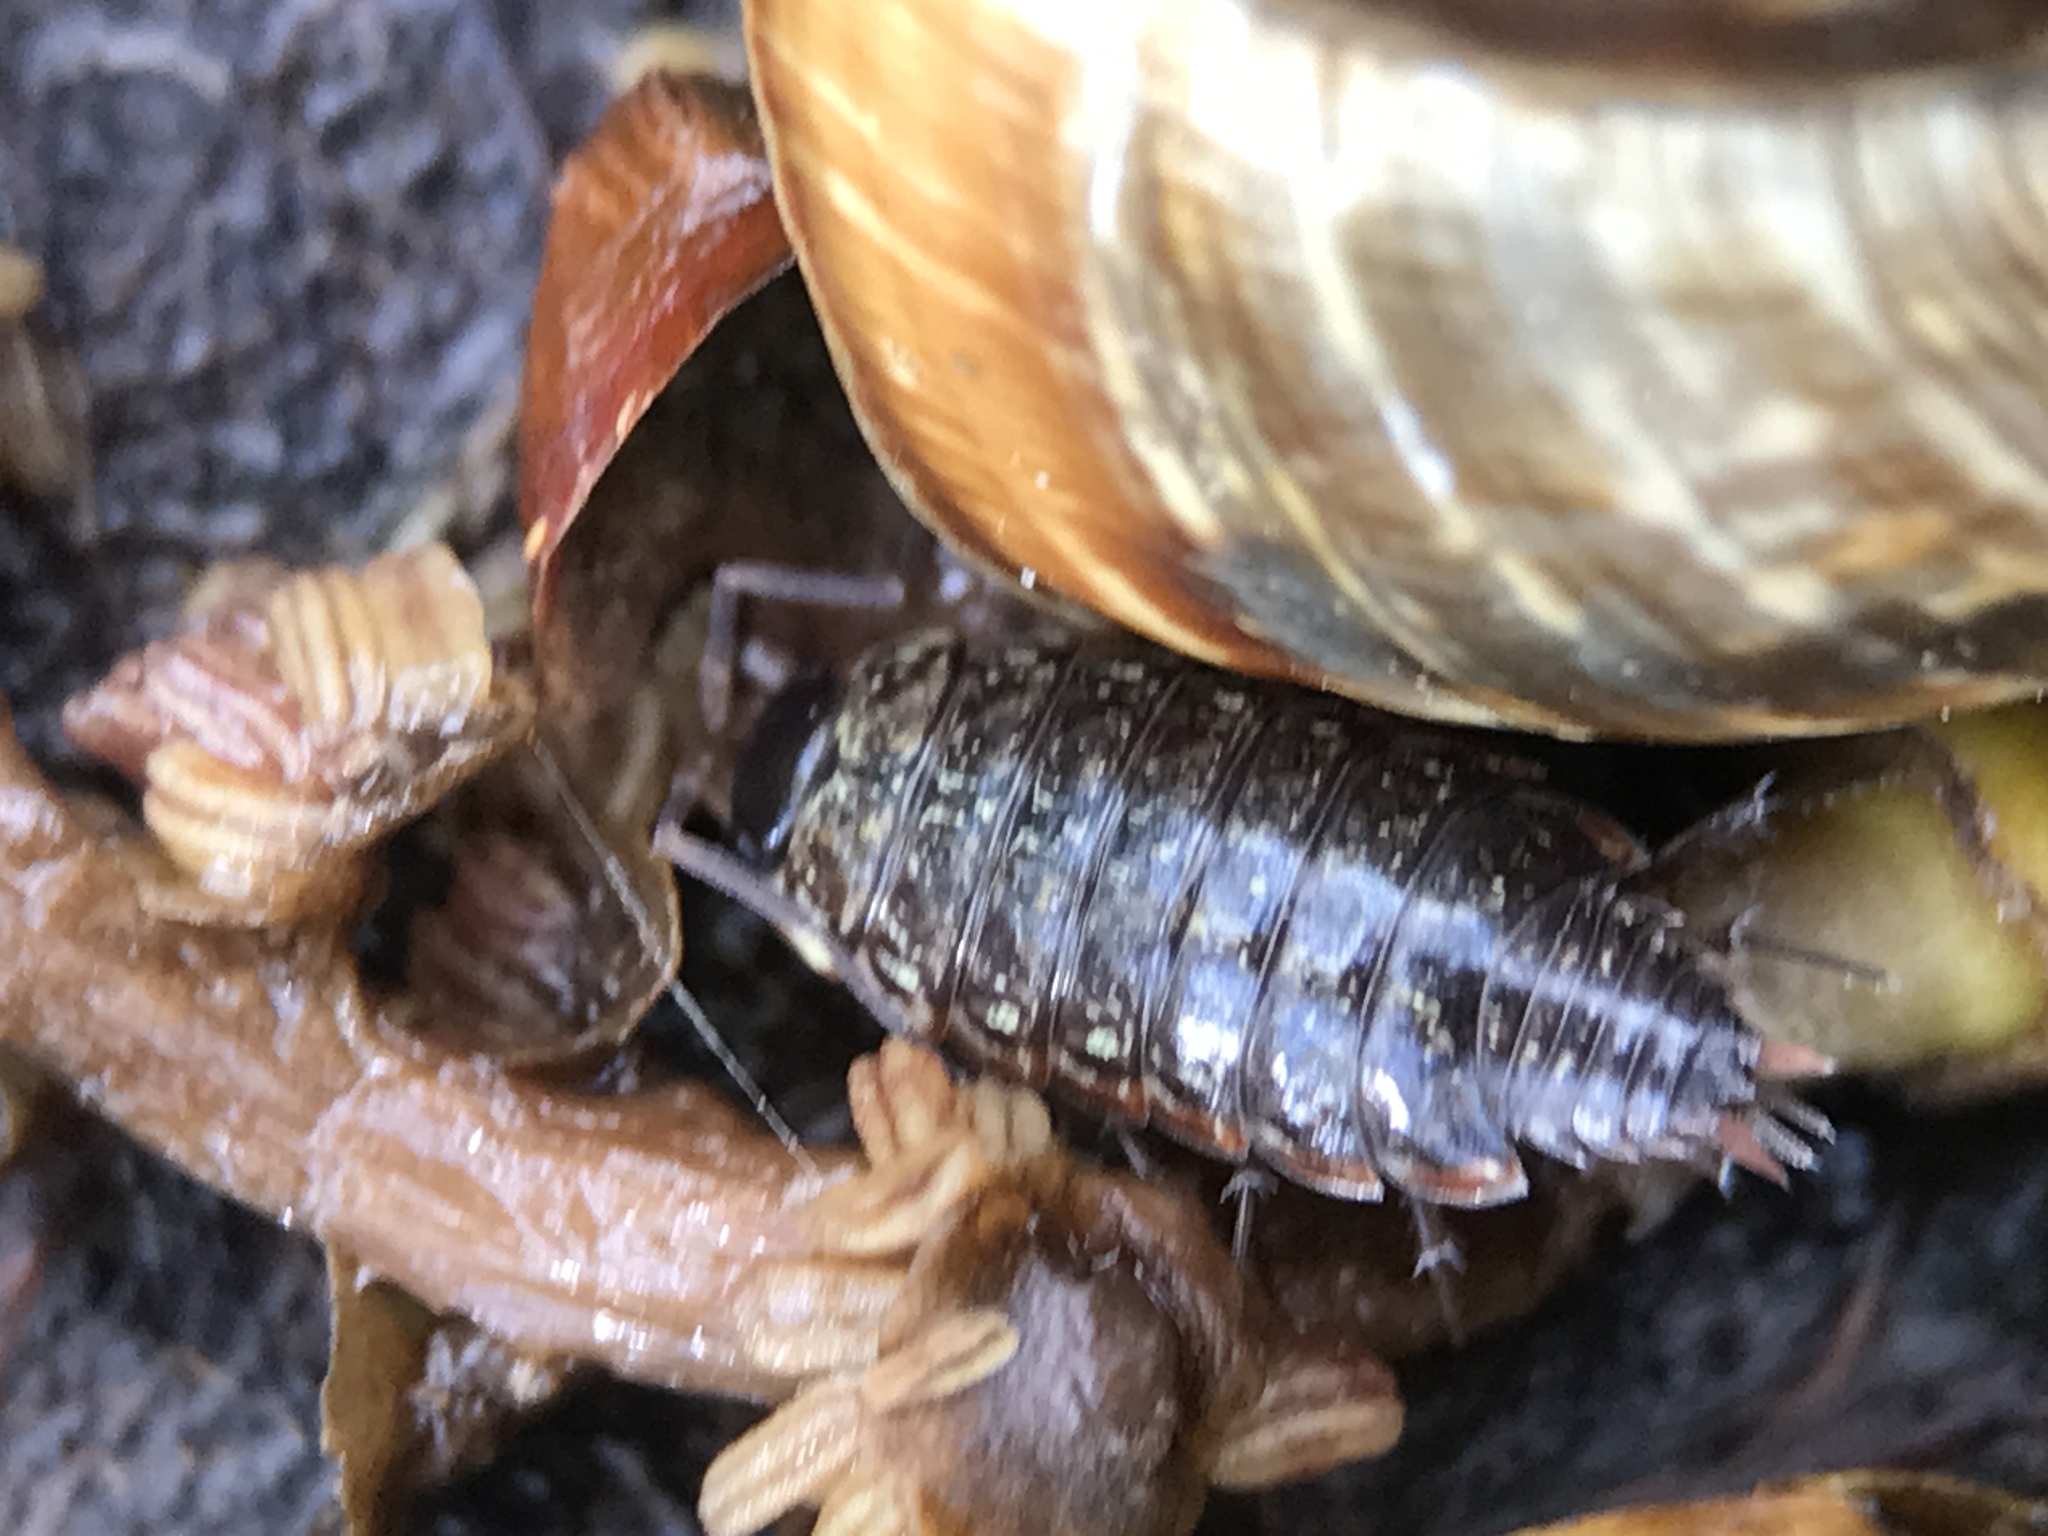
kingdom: Animalia
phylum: Arthropoda
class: Malacostraca
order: Isopoda
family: Philosciidae
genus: Philoscia
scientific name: Philoscia muscorum
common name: Common striped woodlouse
